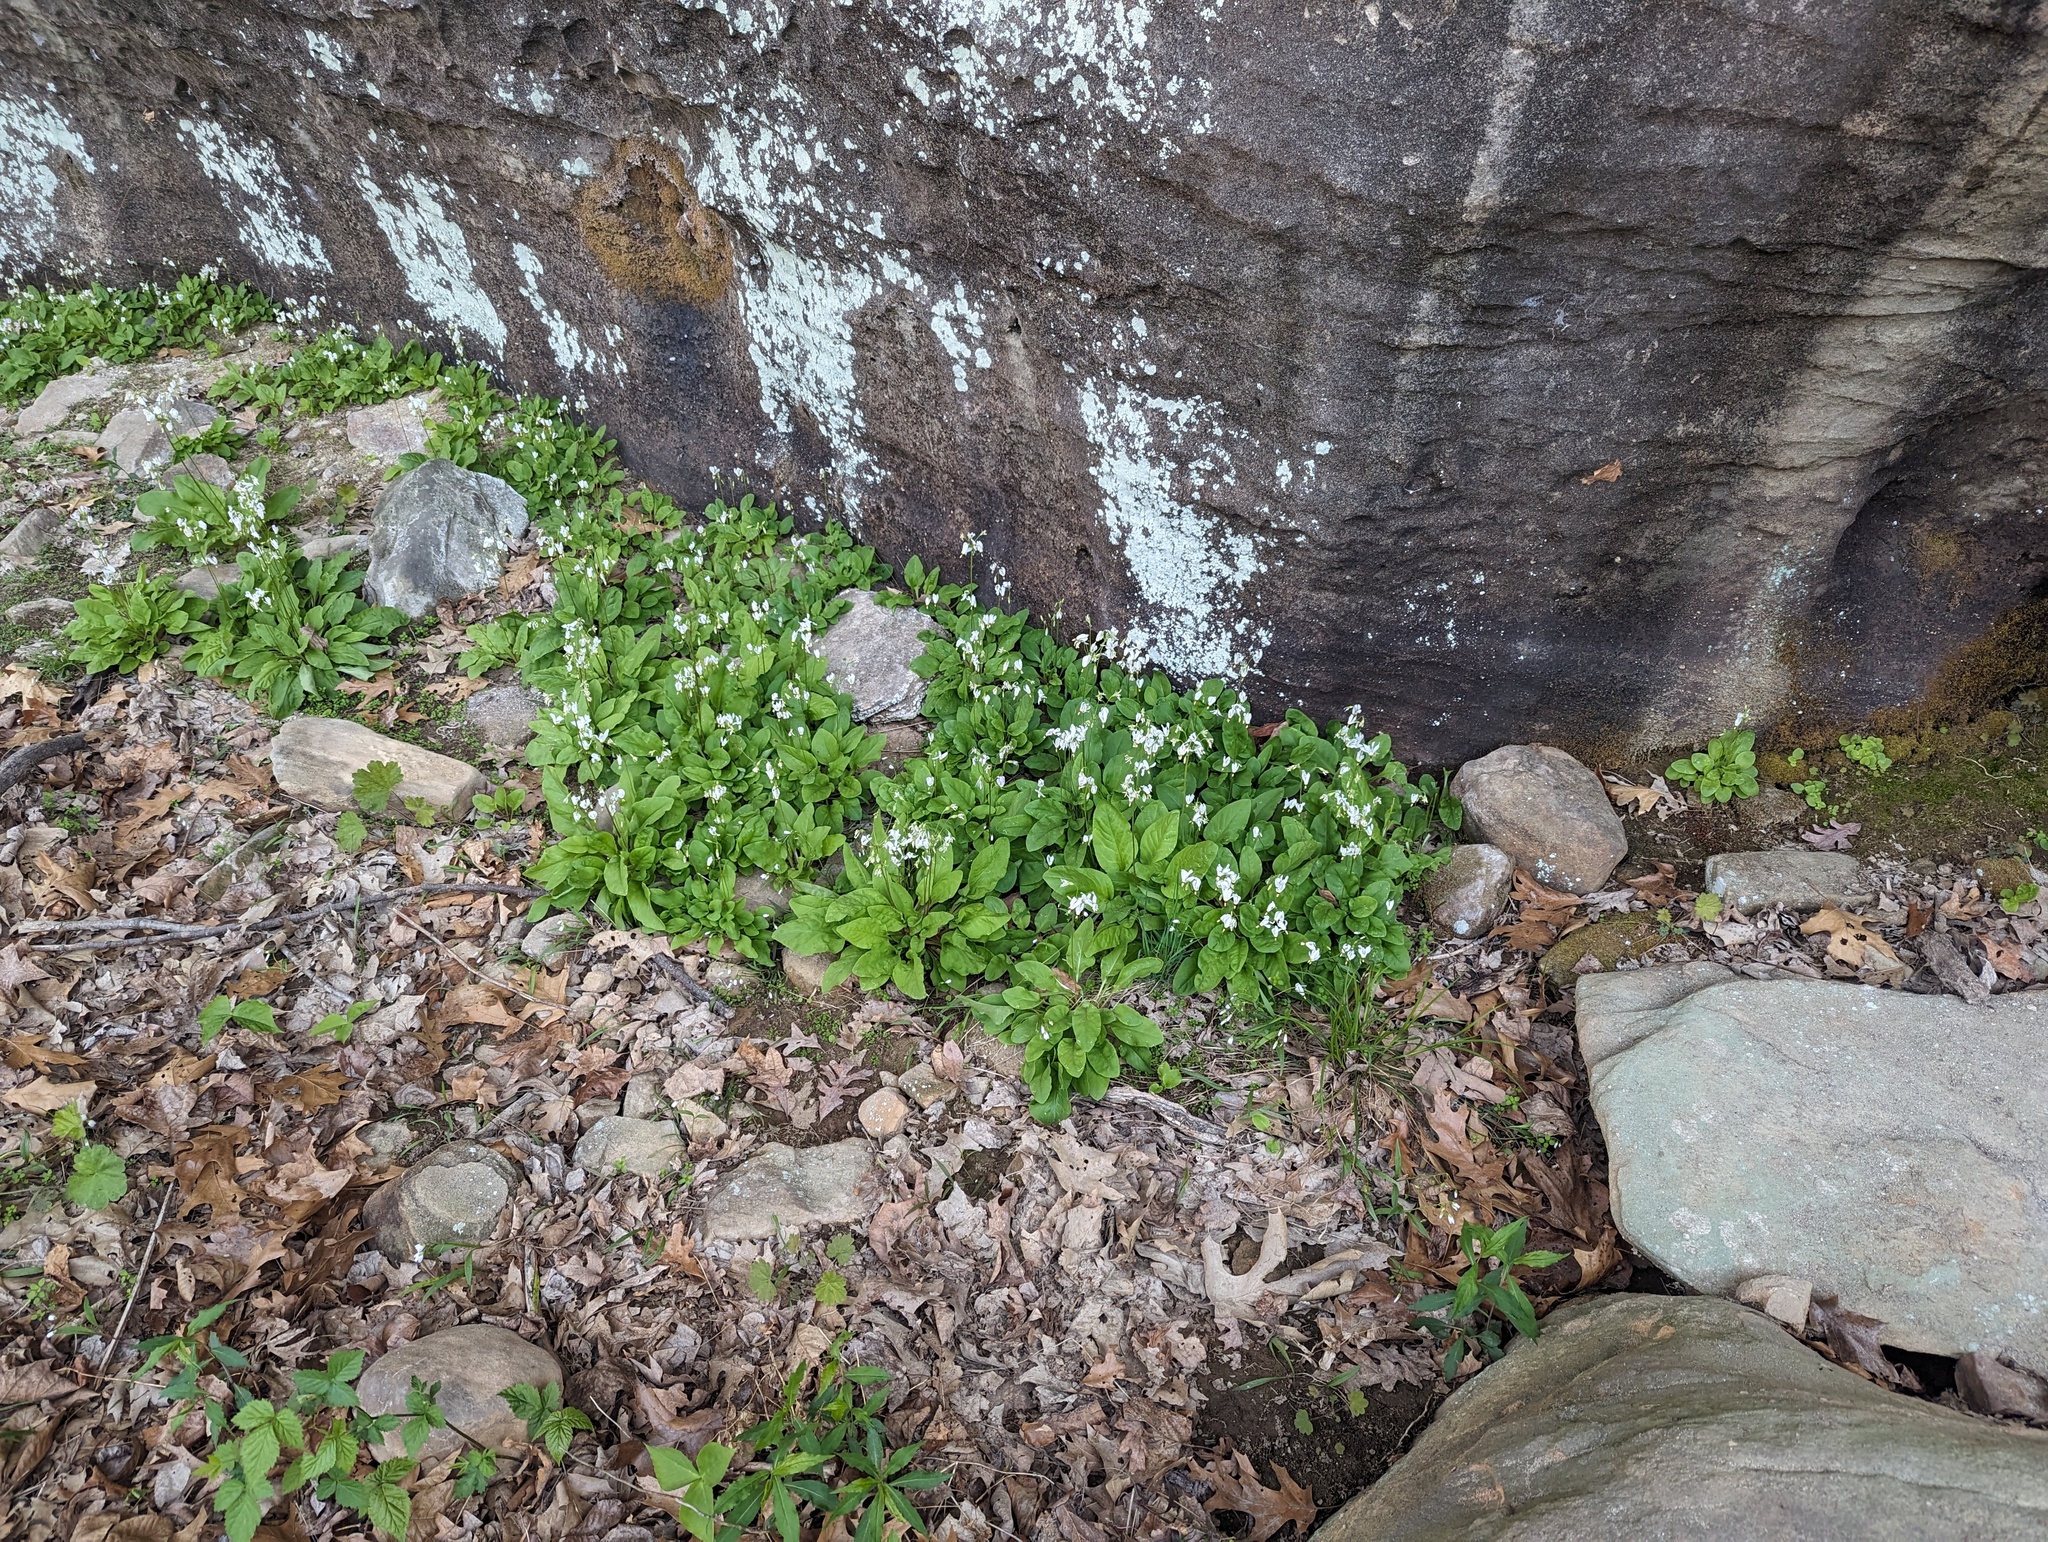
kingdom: Plantae
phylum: Tracheophyta
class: Magnoliopsida
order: Ericales
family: Primulaceae
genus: Dodecatheon
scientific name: Dodecatheon frenchii
